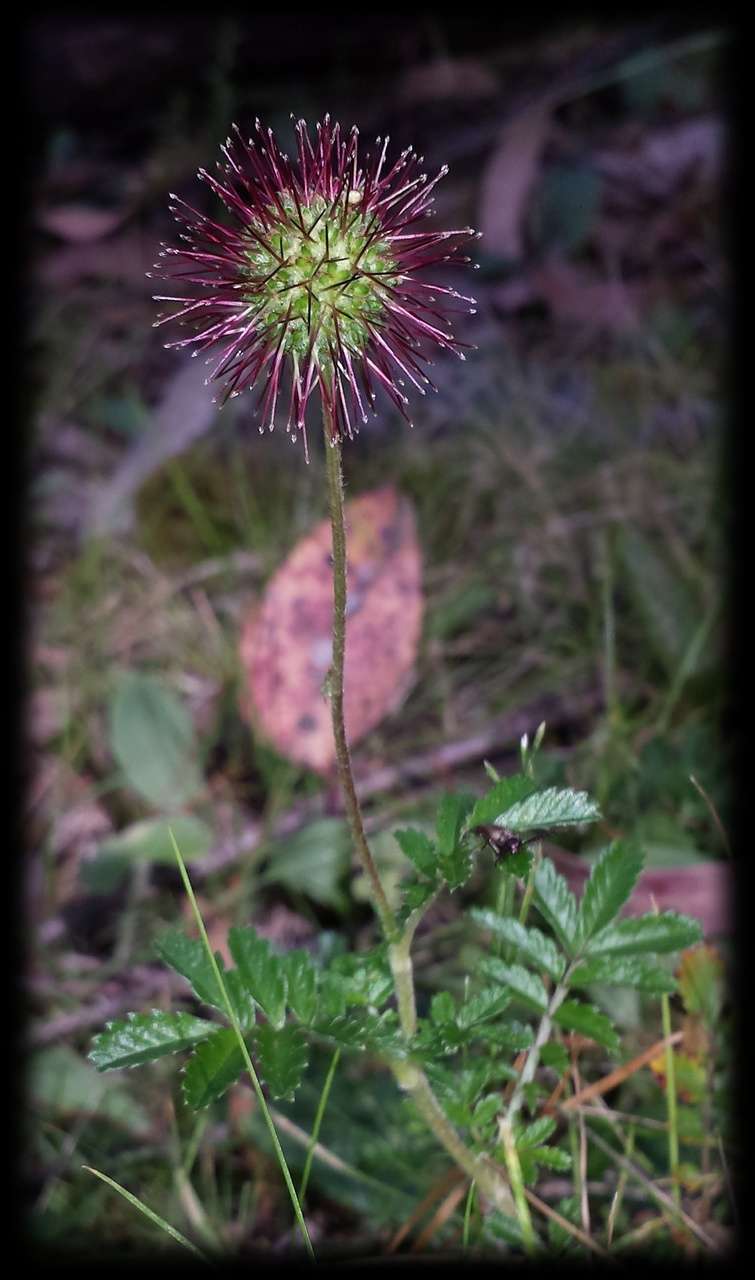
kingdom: Plantae
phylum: Tracheophyta
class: Magnoliopsida
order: Rosales
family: Rosaceae
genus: Acaena
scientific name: Acaena novae-zelandiae
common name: Pirri-pirri-bur
